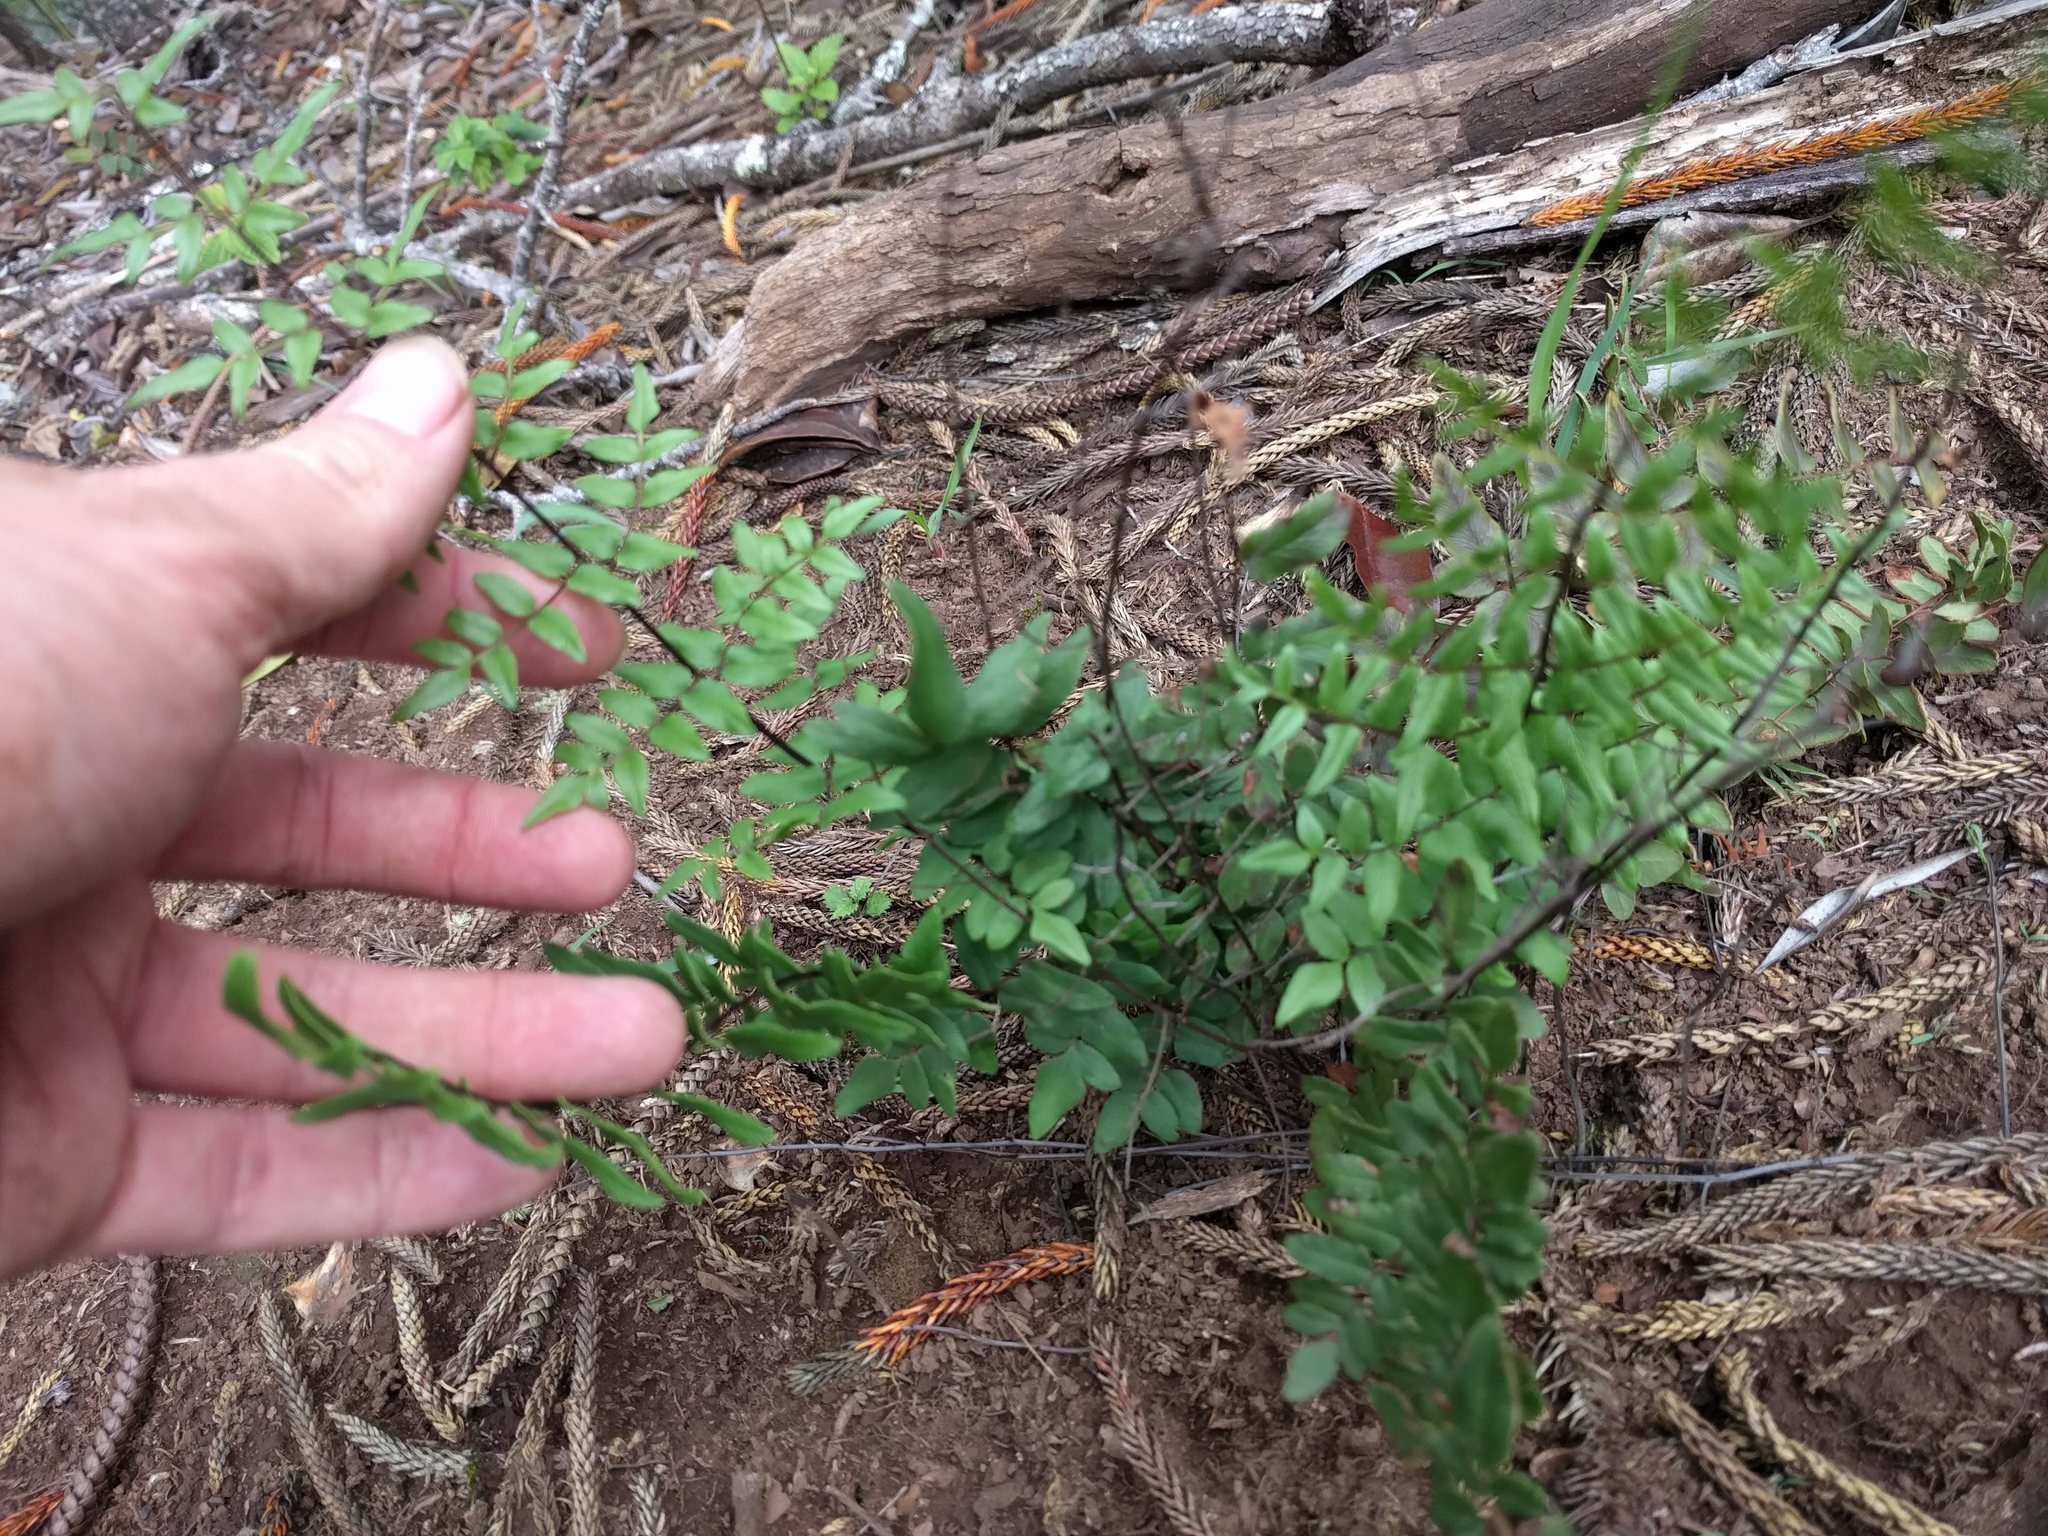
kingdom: Plantae
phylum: Tracheophyta
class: Polypodiopsida
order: Polypodiales
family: Pteridaceae
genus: Cheilanthes
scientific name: Cheilanthes viridis
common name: Green cliffbrake
